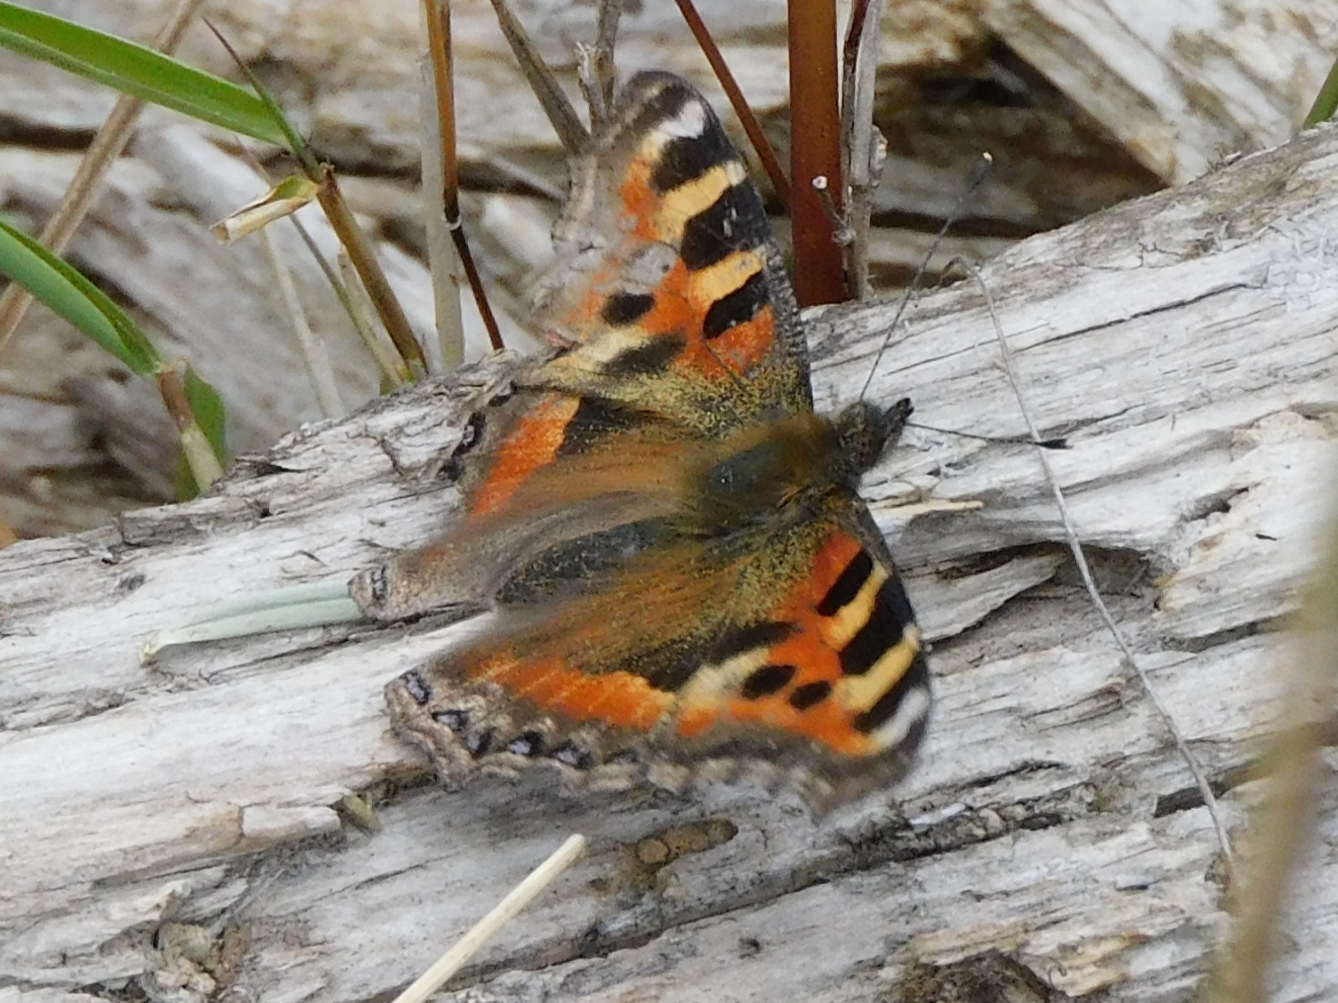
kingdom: Animalia
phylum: Arthropoda
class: Insecta
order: Lepidoptera
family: Nymphalidae
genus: Aglais
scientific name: Aglais caschmirensis
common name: Indian tortoiseshell
